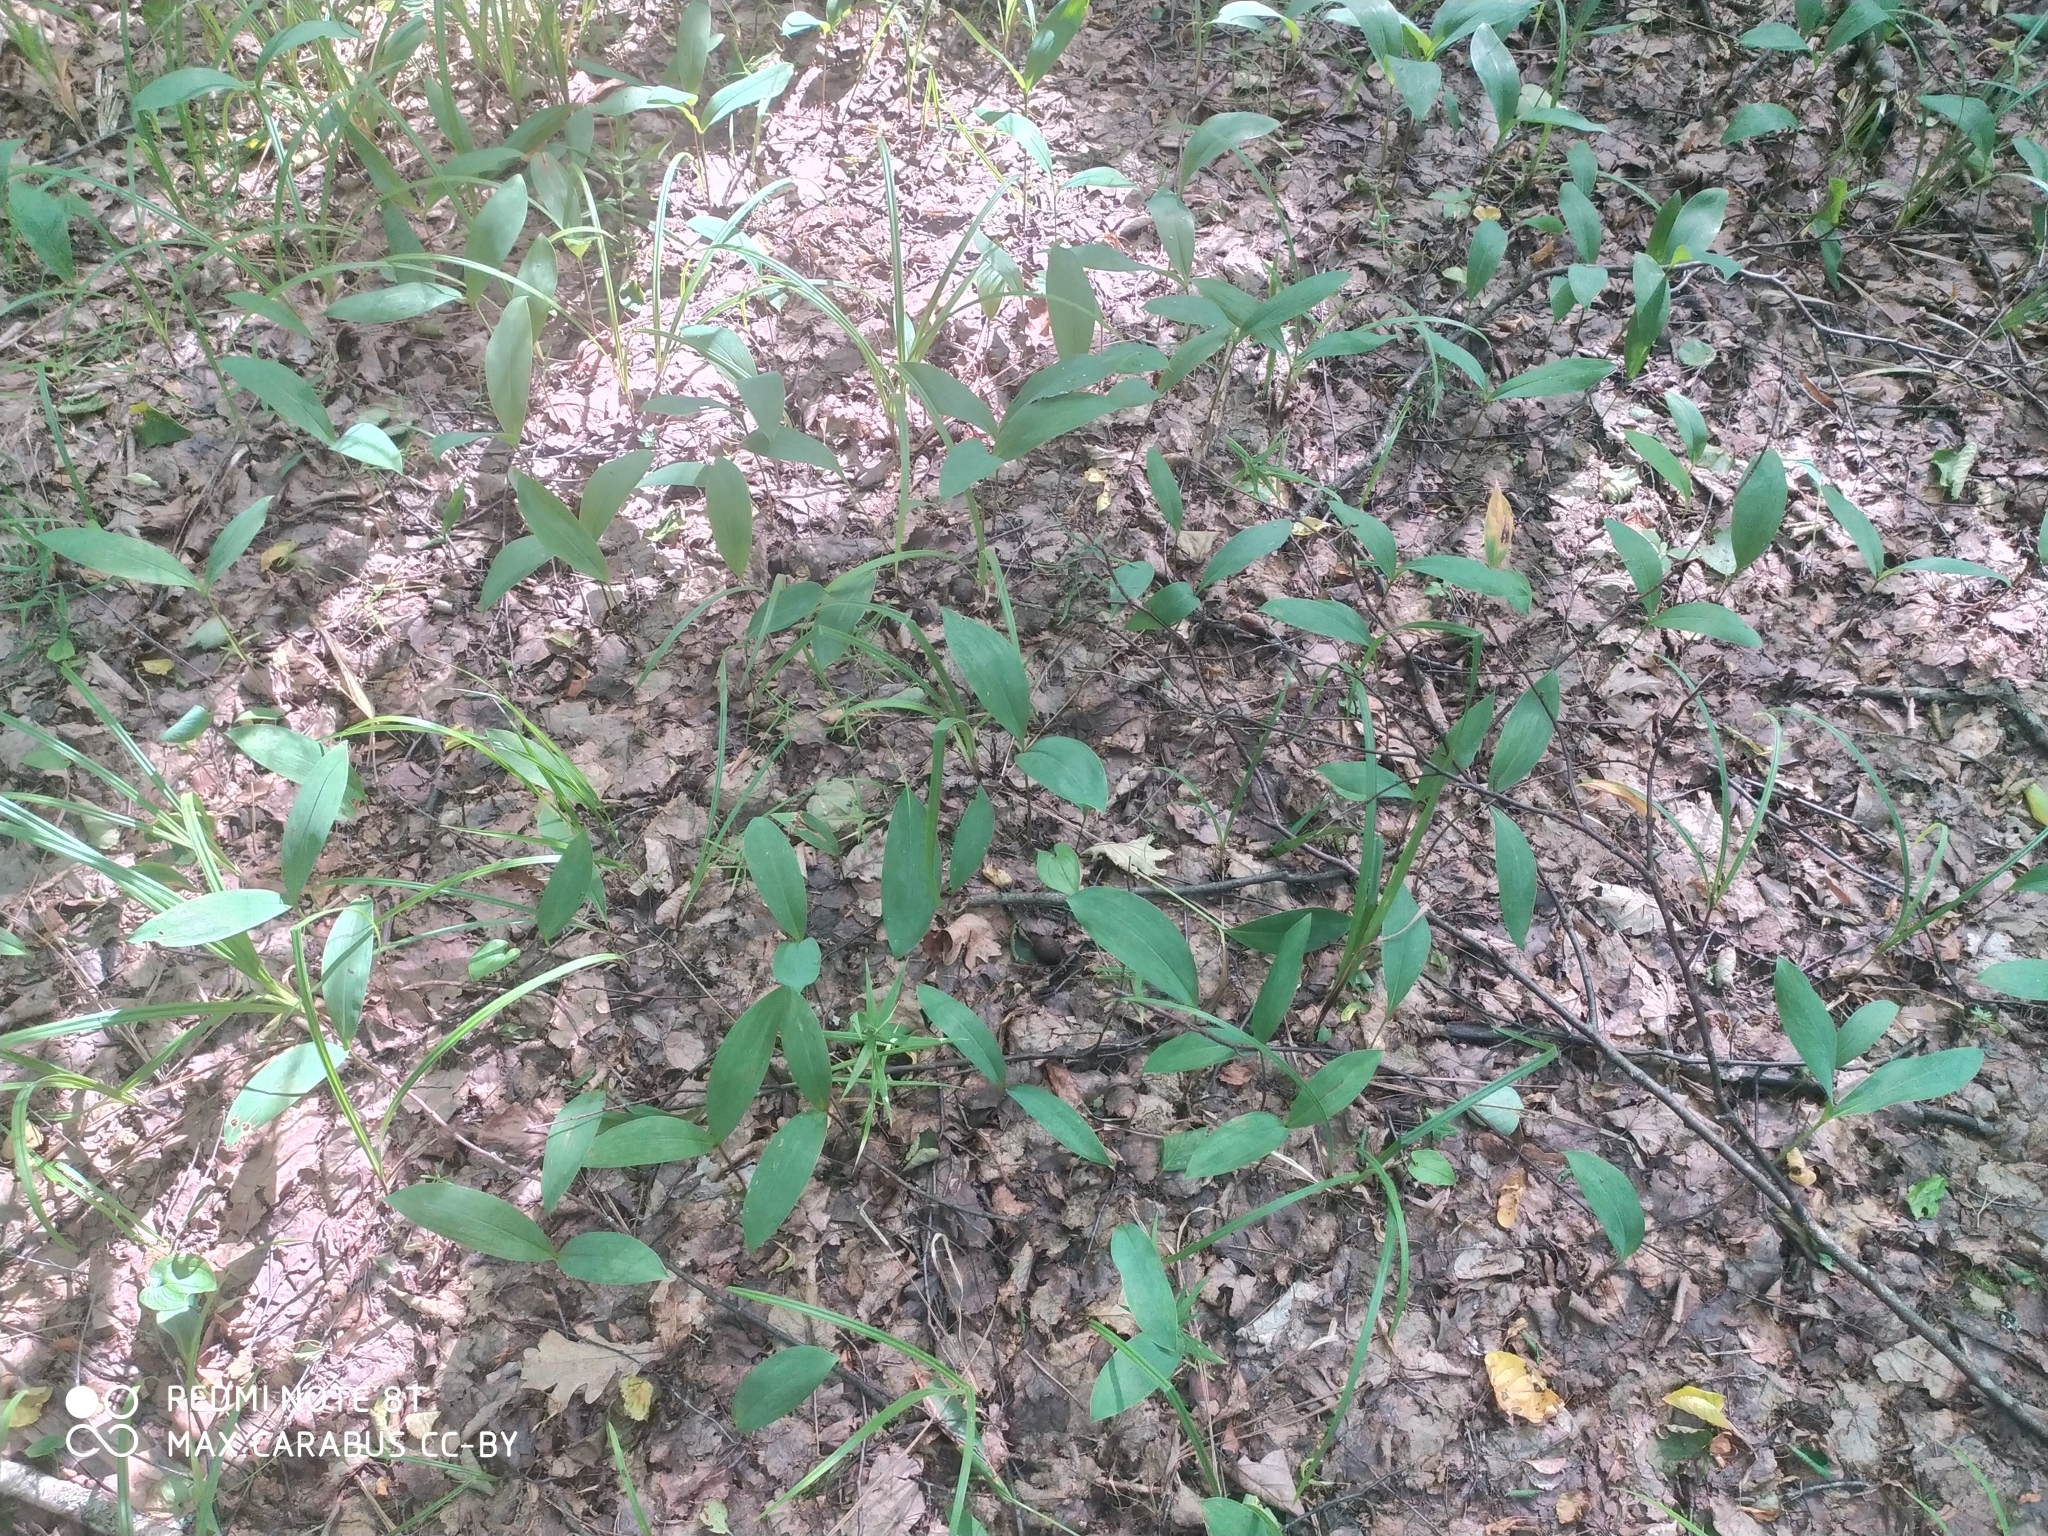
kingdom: Plantae
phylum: Tracheophyta
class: Liliopsida
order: Asparagales
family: Asparagaceae
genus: Convallaria
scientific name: Convallaria majalis
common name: Lily-of-the-valley
